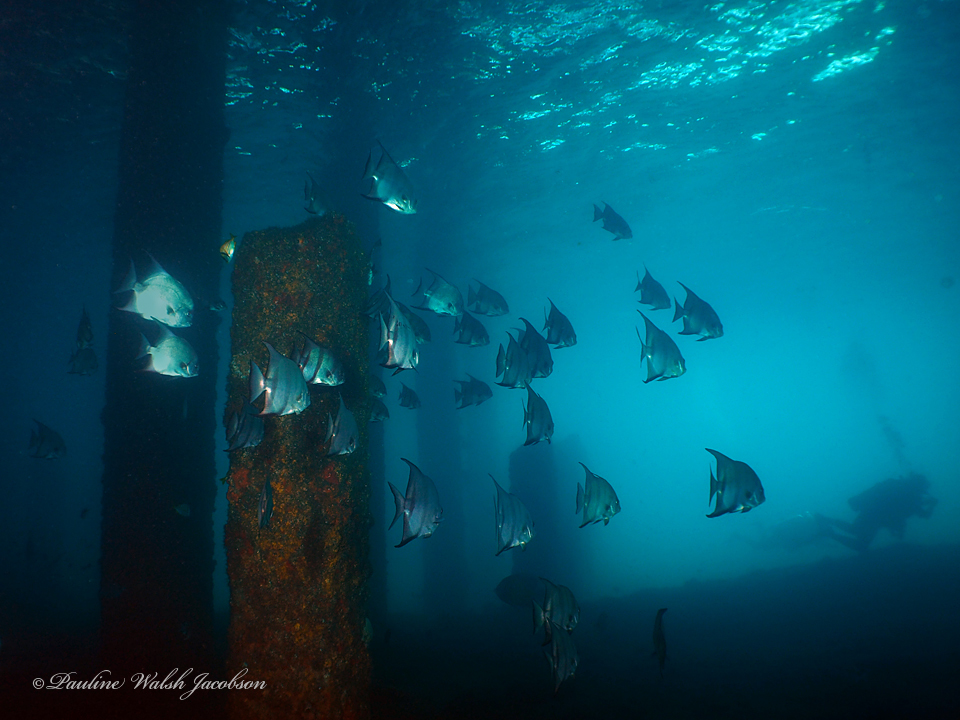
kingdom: Animalia
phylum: Chordata
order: Perciformes
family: Ephippidae
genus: Chaetodipterus
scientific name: Chaetodipterus faber
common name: Ocean cobbler
